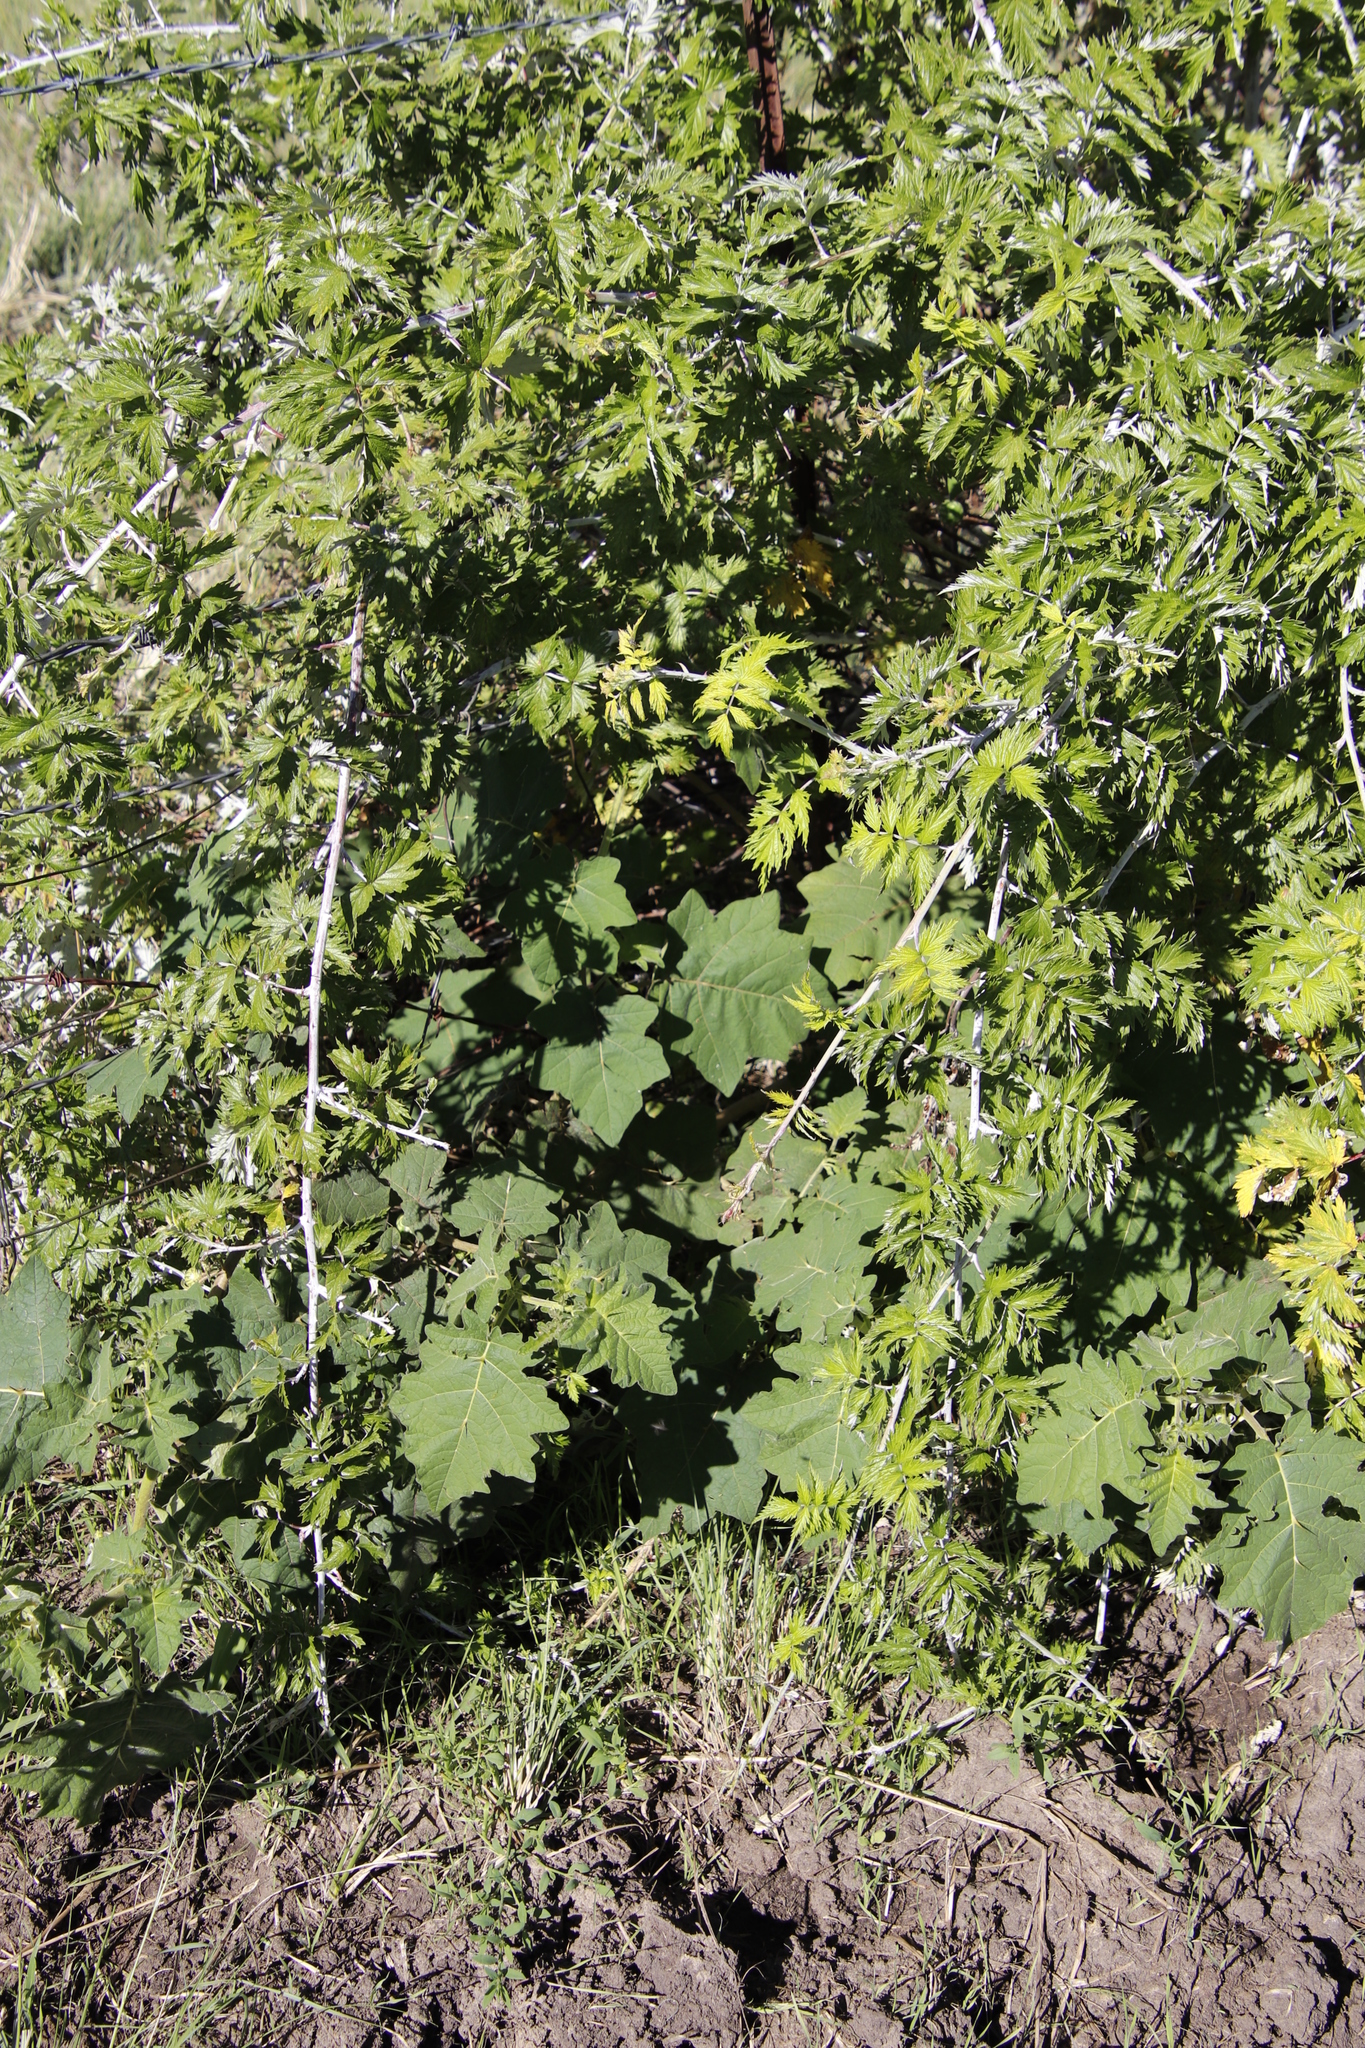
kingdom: Plantae
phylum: Tracheophyta
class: Magnoliopsida
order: Solanales
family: Solanaceae
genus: Solanum
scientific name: Solanum viarum
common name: Tropical soda apple
